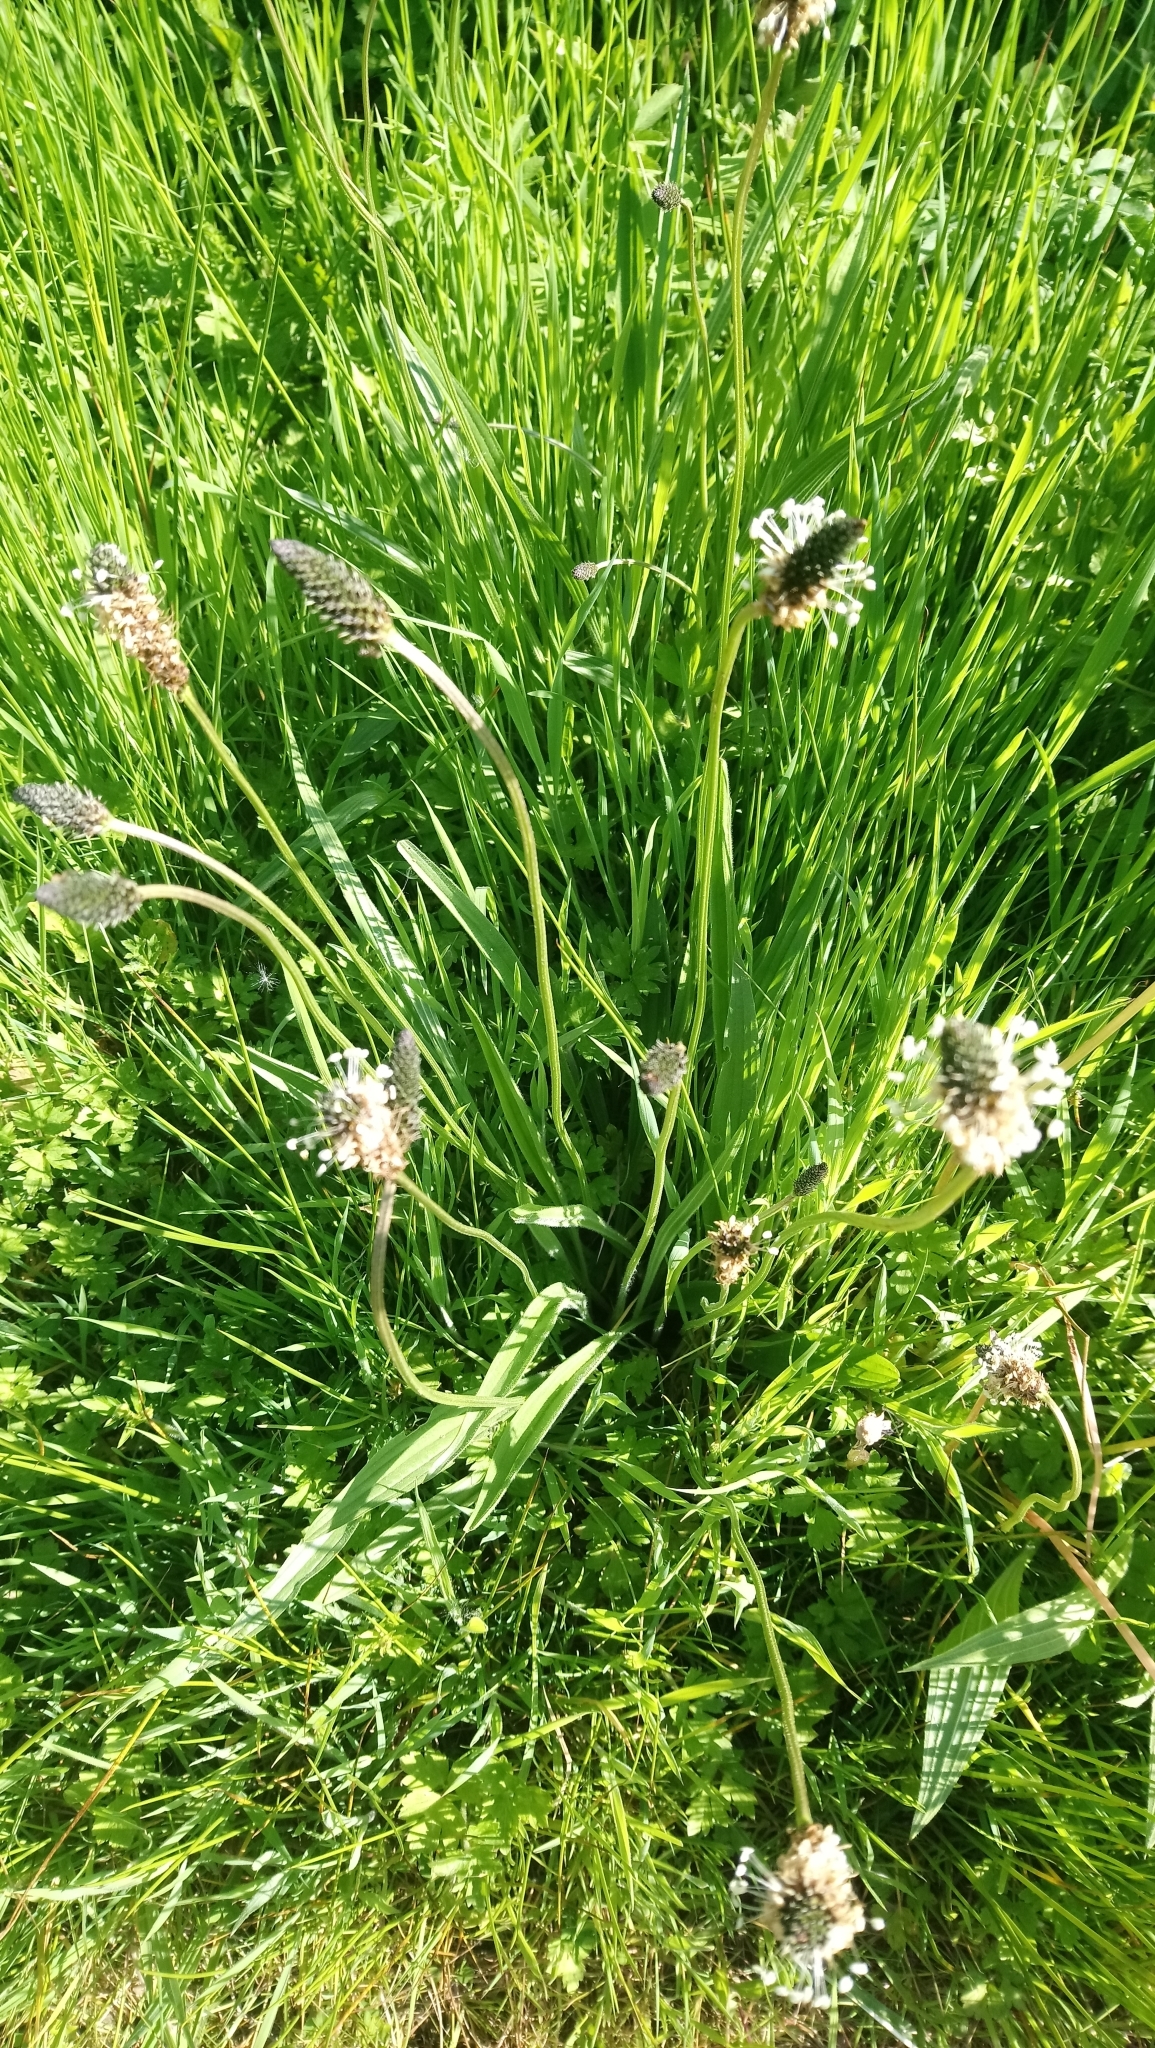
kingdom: Plantae
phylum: Tracheophyta
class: Magnoliopsida
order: Lamiales
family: Plantaginaceae
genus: Plantago
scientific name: Plantago lanceolata
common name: Ribwort plantain
